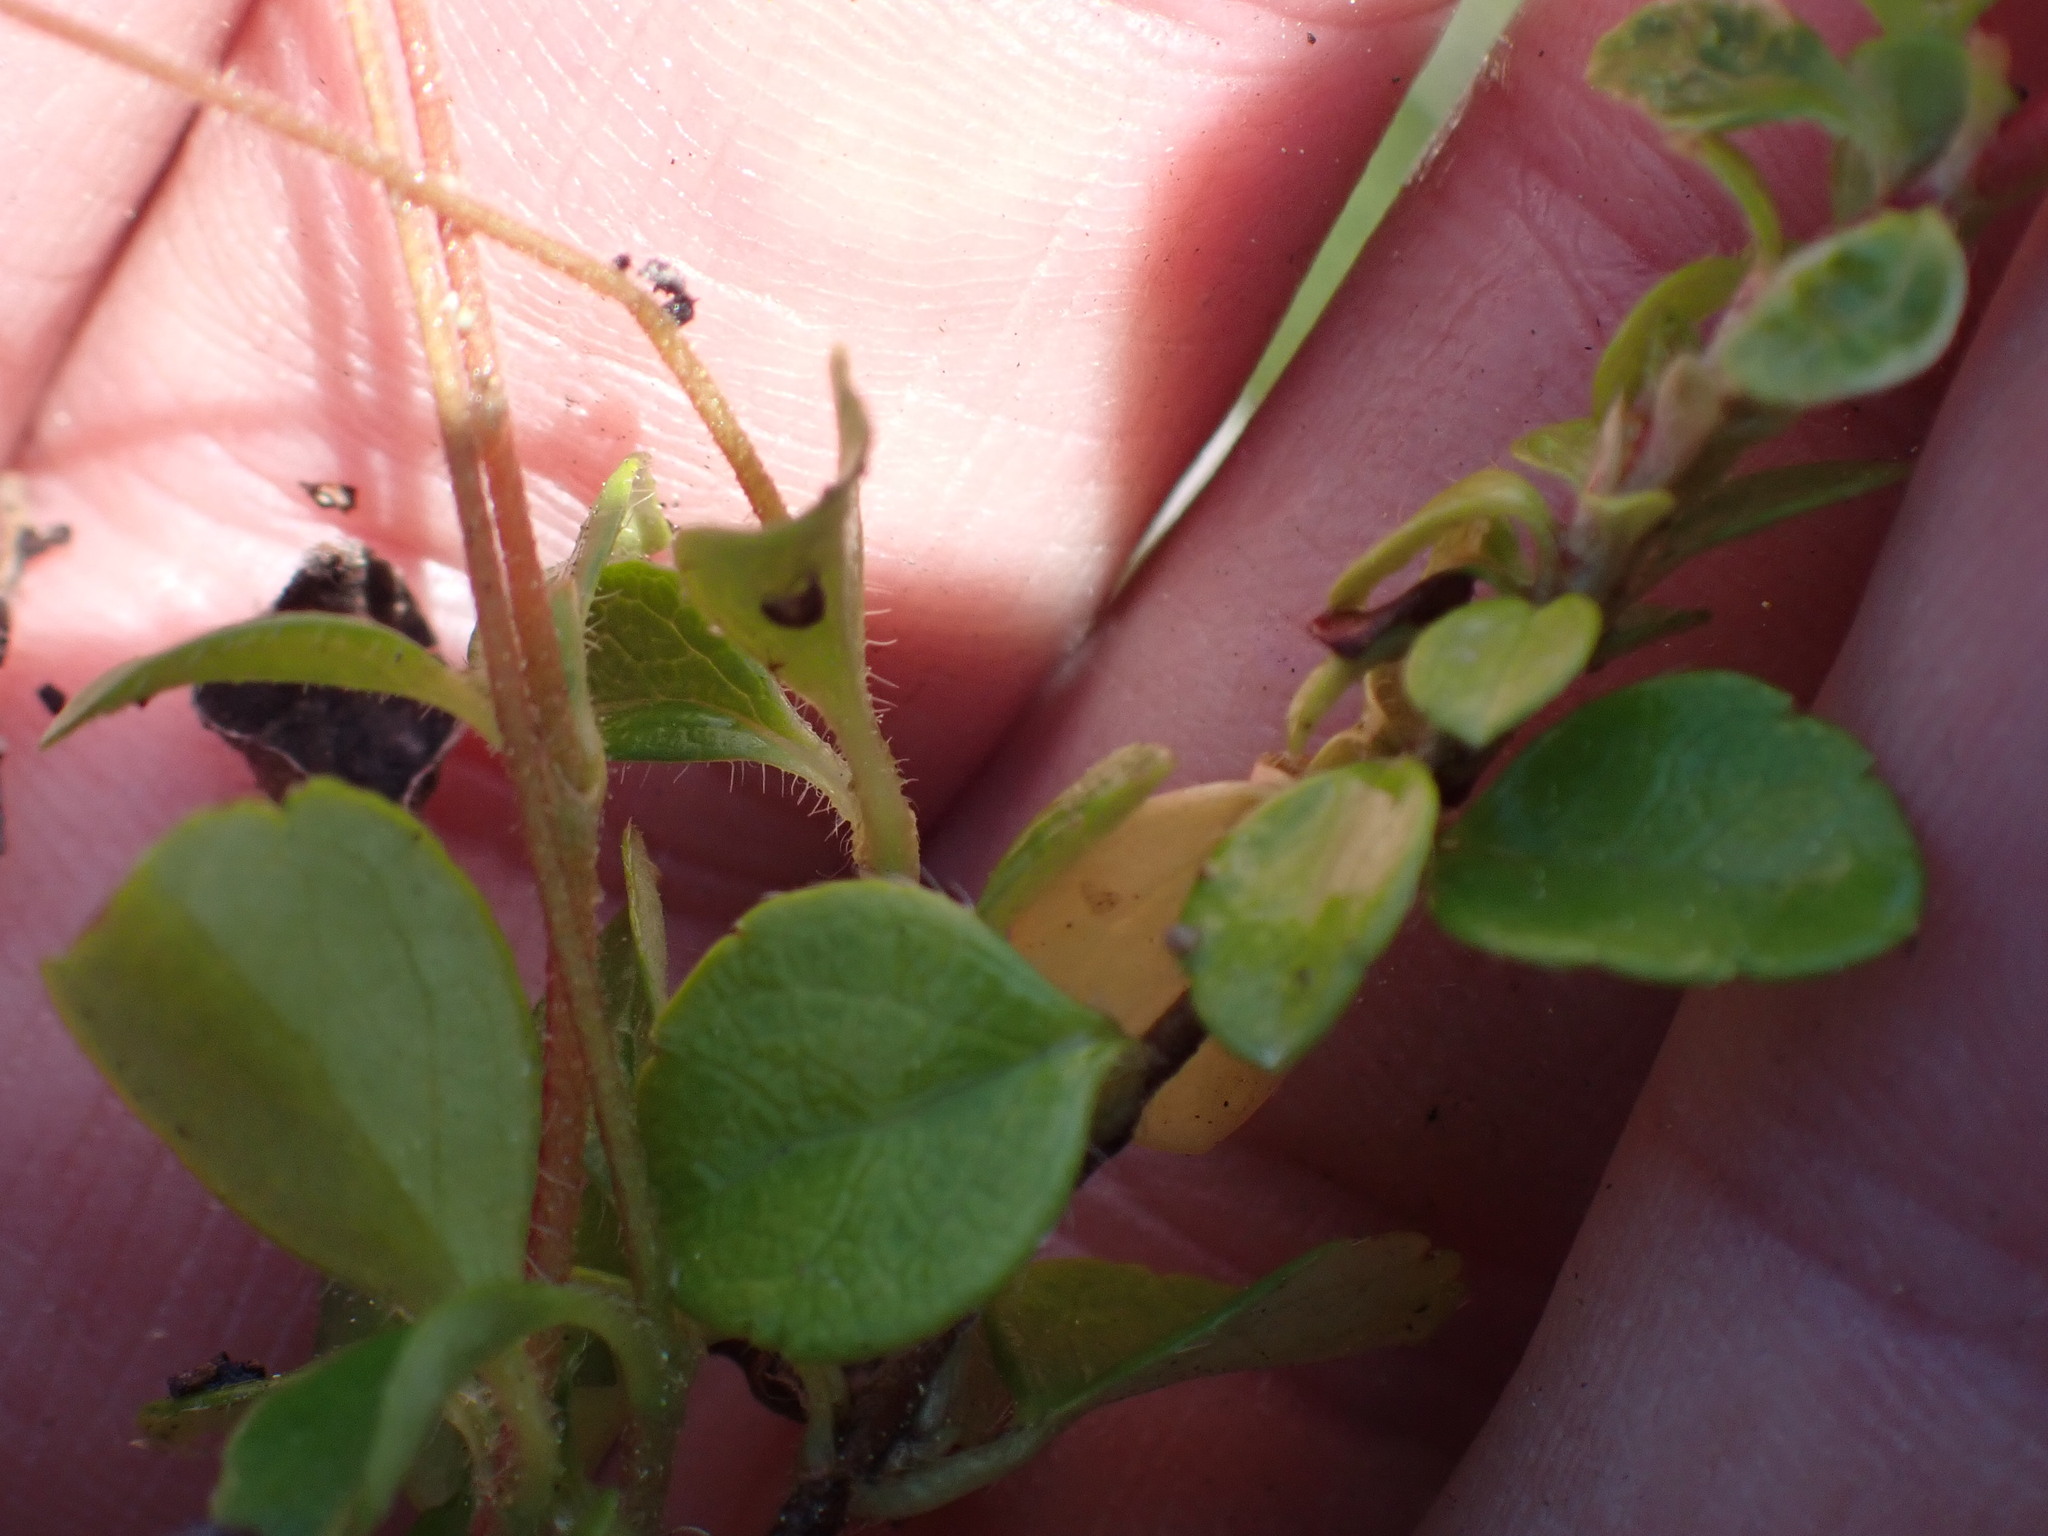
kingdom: Plantae
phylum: Tracheophyta
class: Magnoliopsida
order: Dipsacales
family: Caprifoliaceae
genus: Linnaea
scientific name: Linnaea borealis
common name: Twinflower
